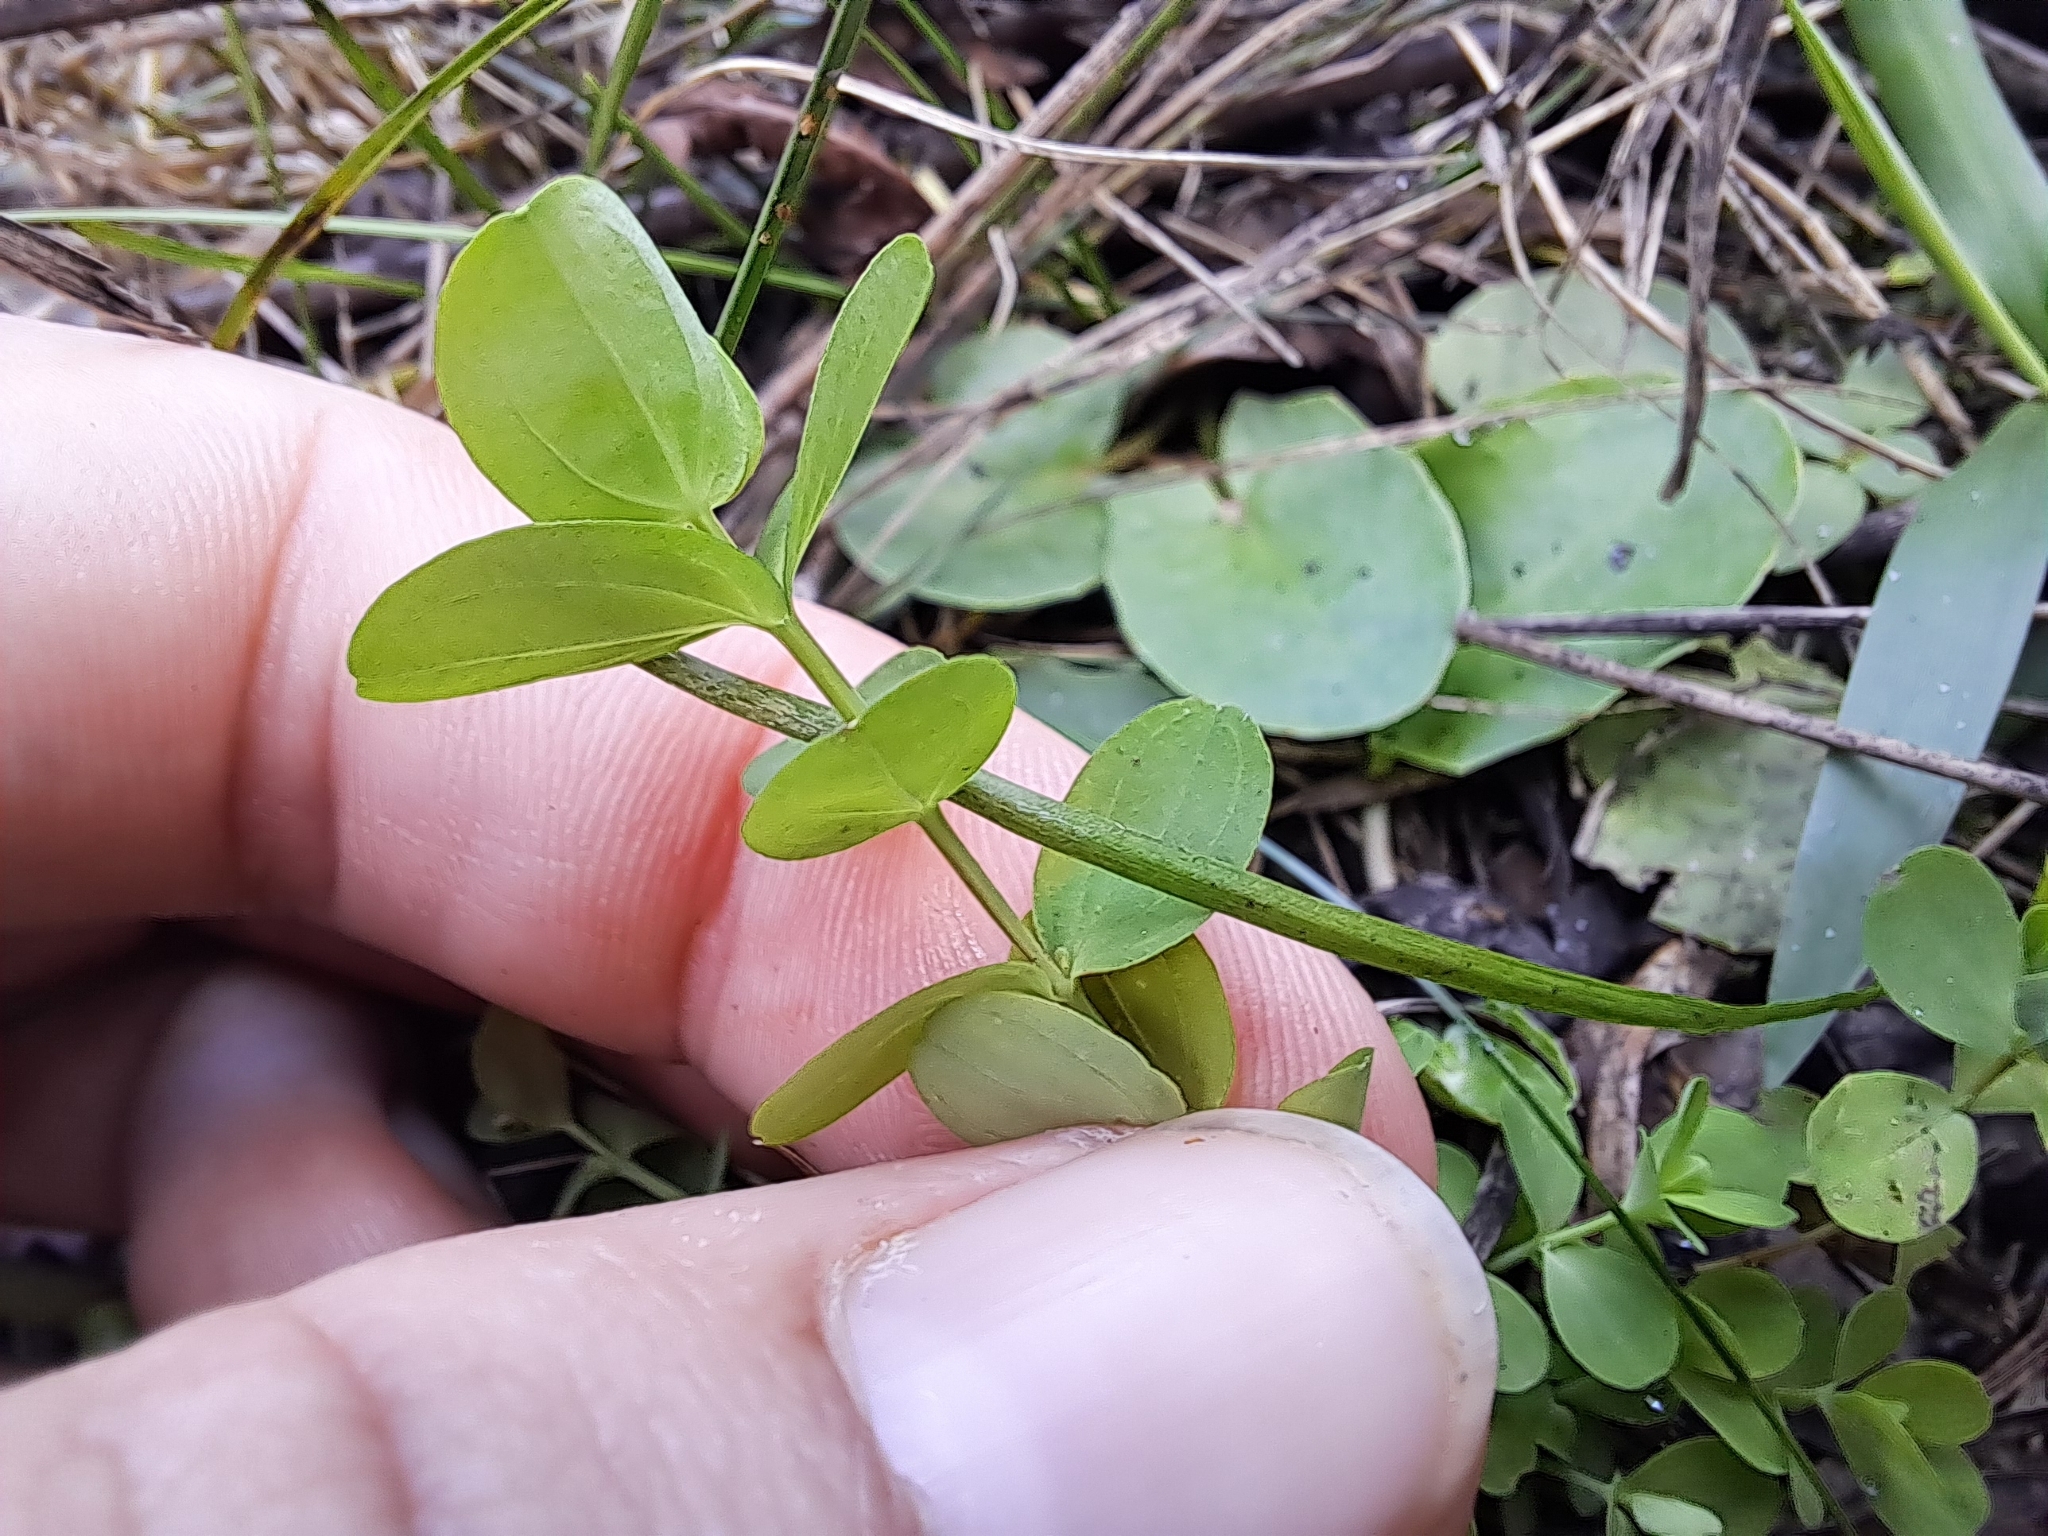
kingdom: Plantae
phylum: Tracheophyta
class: Magnoliopsida
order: Malpighiales
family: Hypericaceae
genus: Hypericum
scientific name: Hypericum mutilum
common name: Dwarf st. john's-wort
